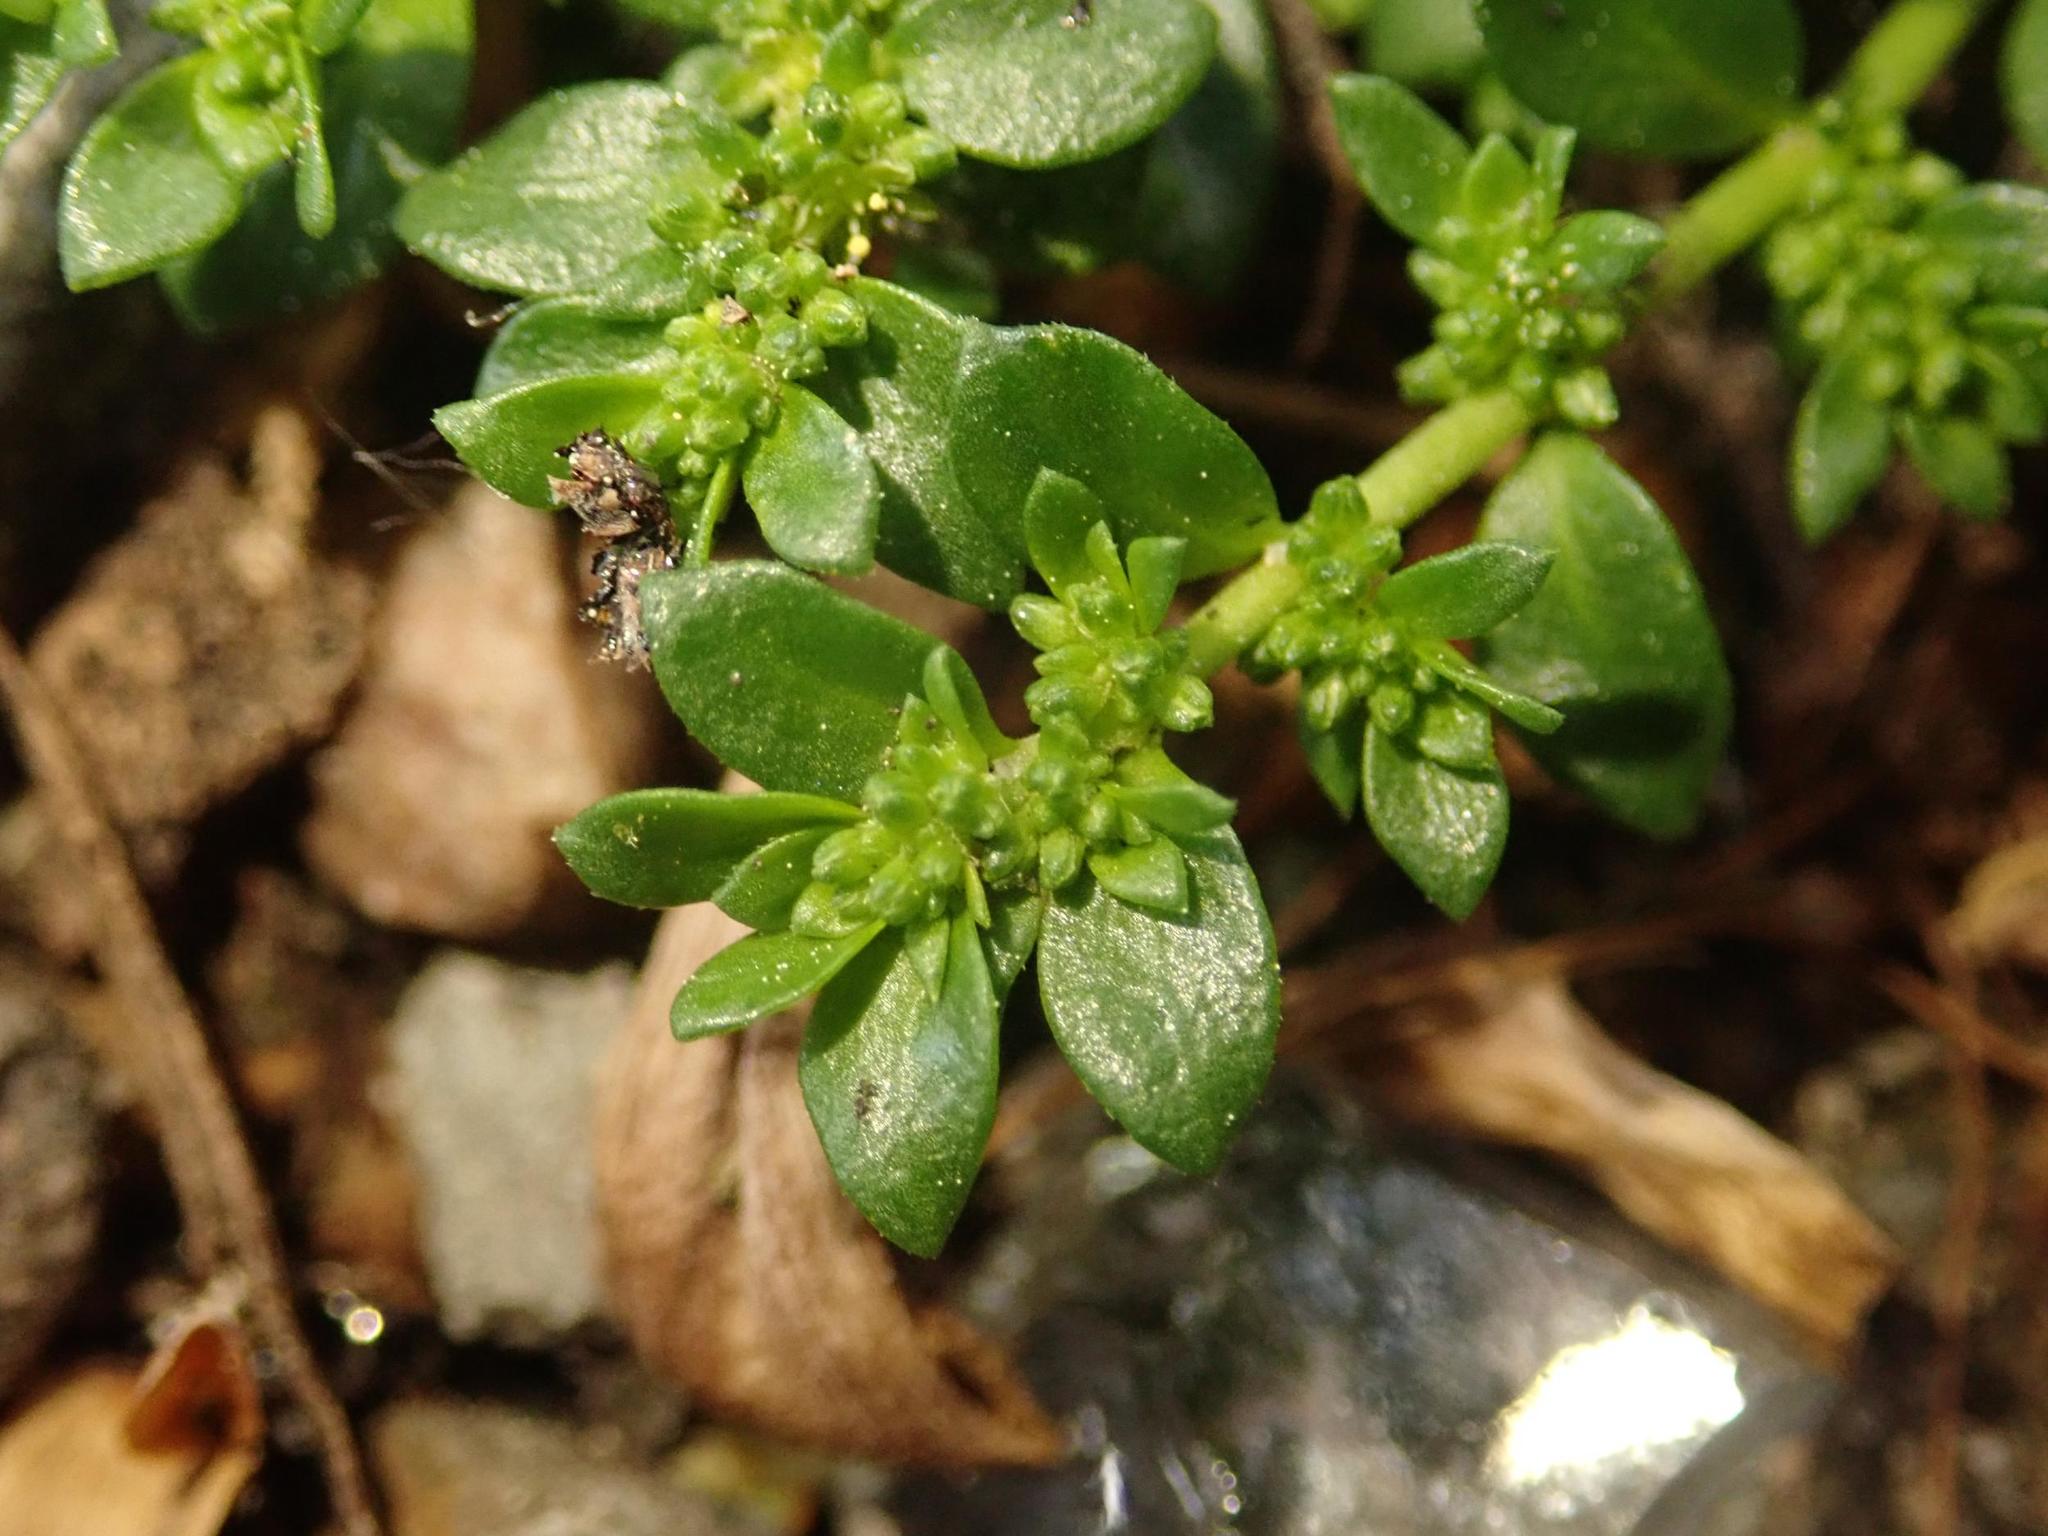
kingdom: Plantae
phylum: Tracheophyta
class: Magnoliopsida
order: Caryophyllales
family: Caryophyllaceae
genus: Herniaria
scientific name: Herniaria glabra
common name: Smooth rupturewort
